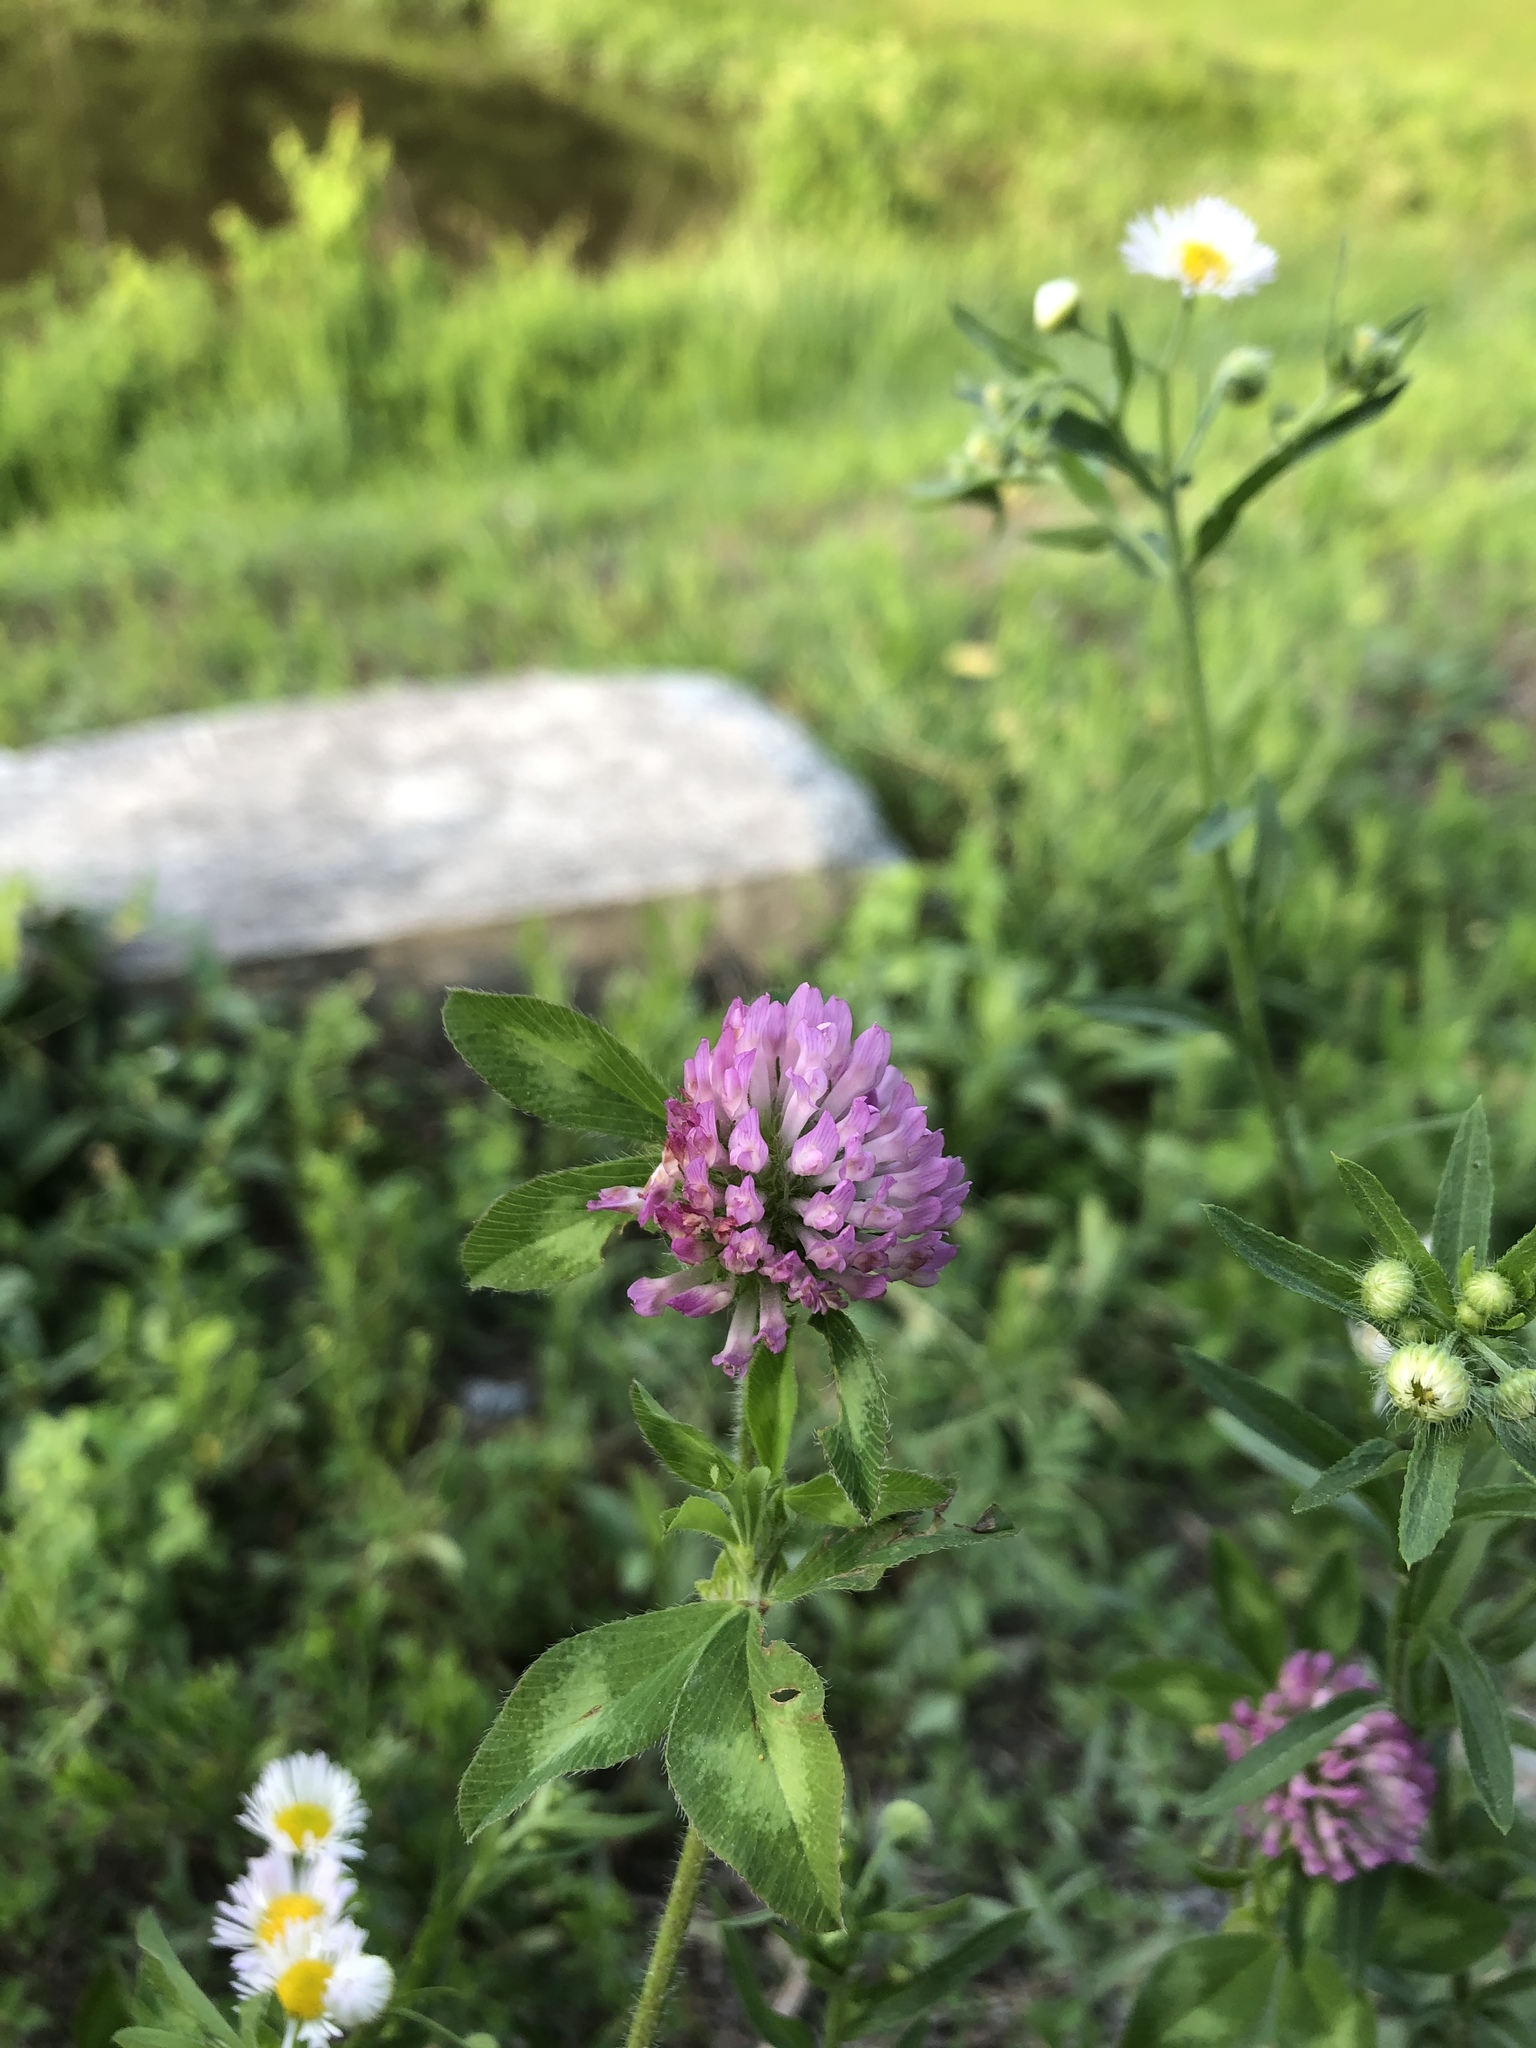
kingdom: Plantae
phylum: Tracheophyta
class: Magnoliopsida
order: Fabales
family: Fabaceae
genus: Trifolium
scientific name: Trifolium pratense
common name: Red clover
